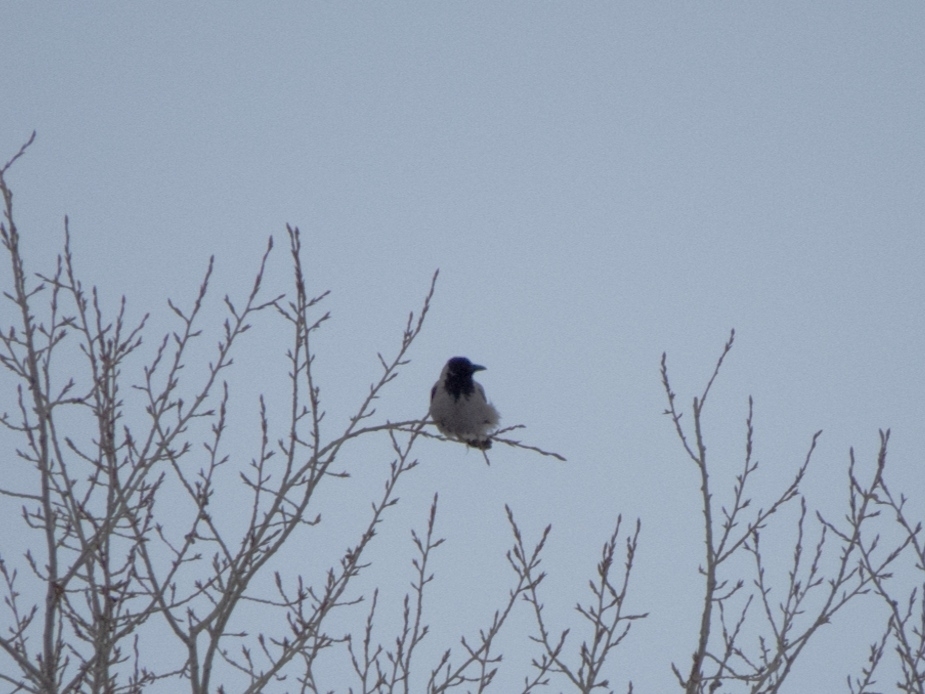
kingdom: Animalia
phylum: Chordata
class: Aves
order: Passeriformes
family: Corvidae
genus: Corvus
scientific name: Corvus cornix
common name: Hooded crow
